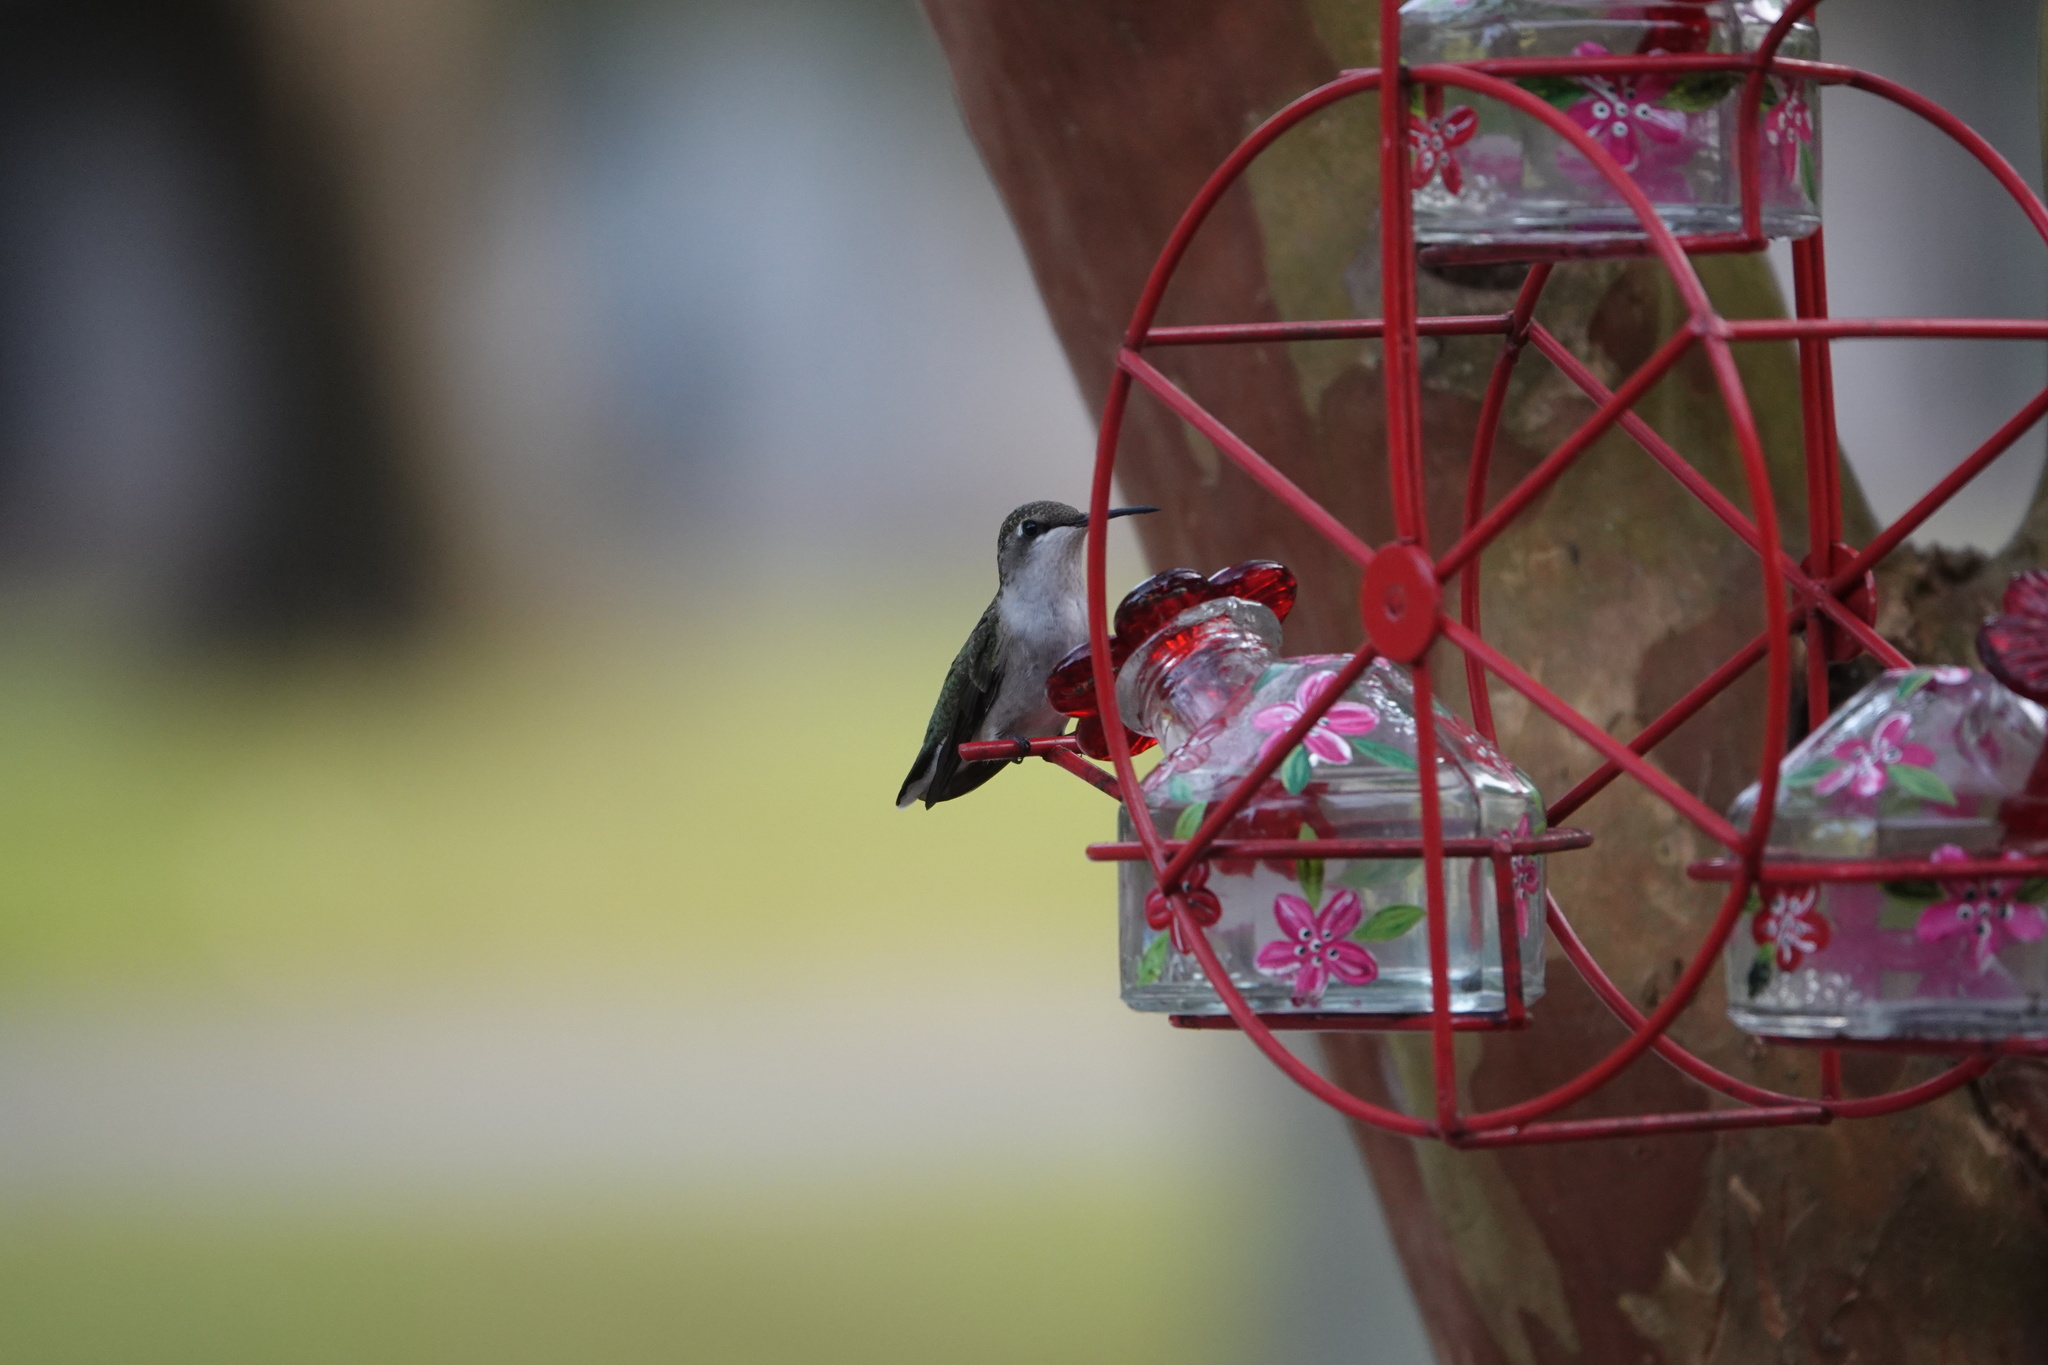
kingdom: Animalia
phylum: Chordata
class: Aves
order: Apodiformes
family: Trochilidae
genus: Archilochus
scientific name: Archilochus colubris
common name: Ruby-throated hummingbird
